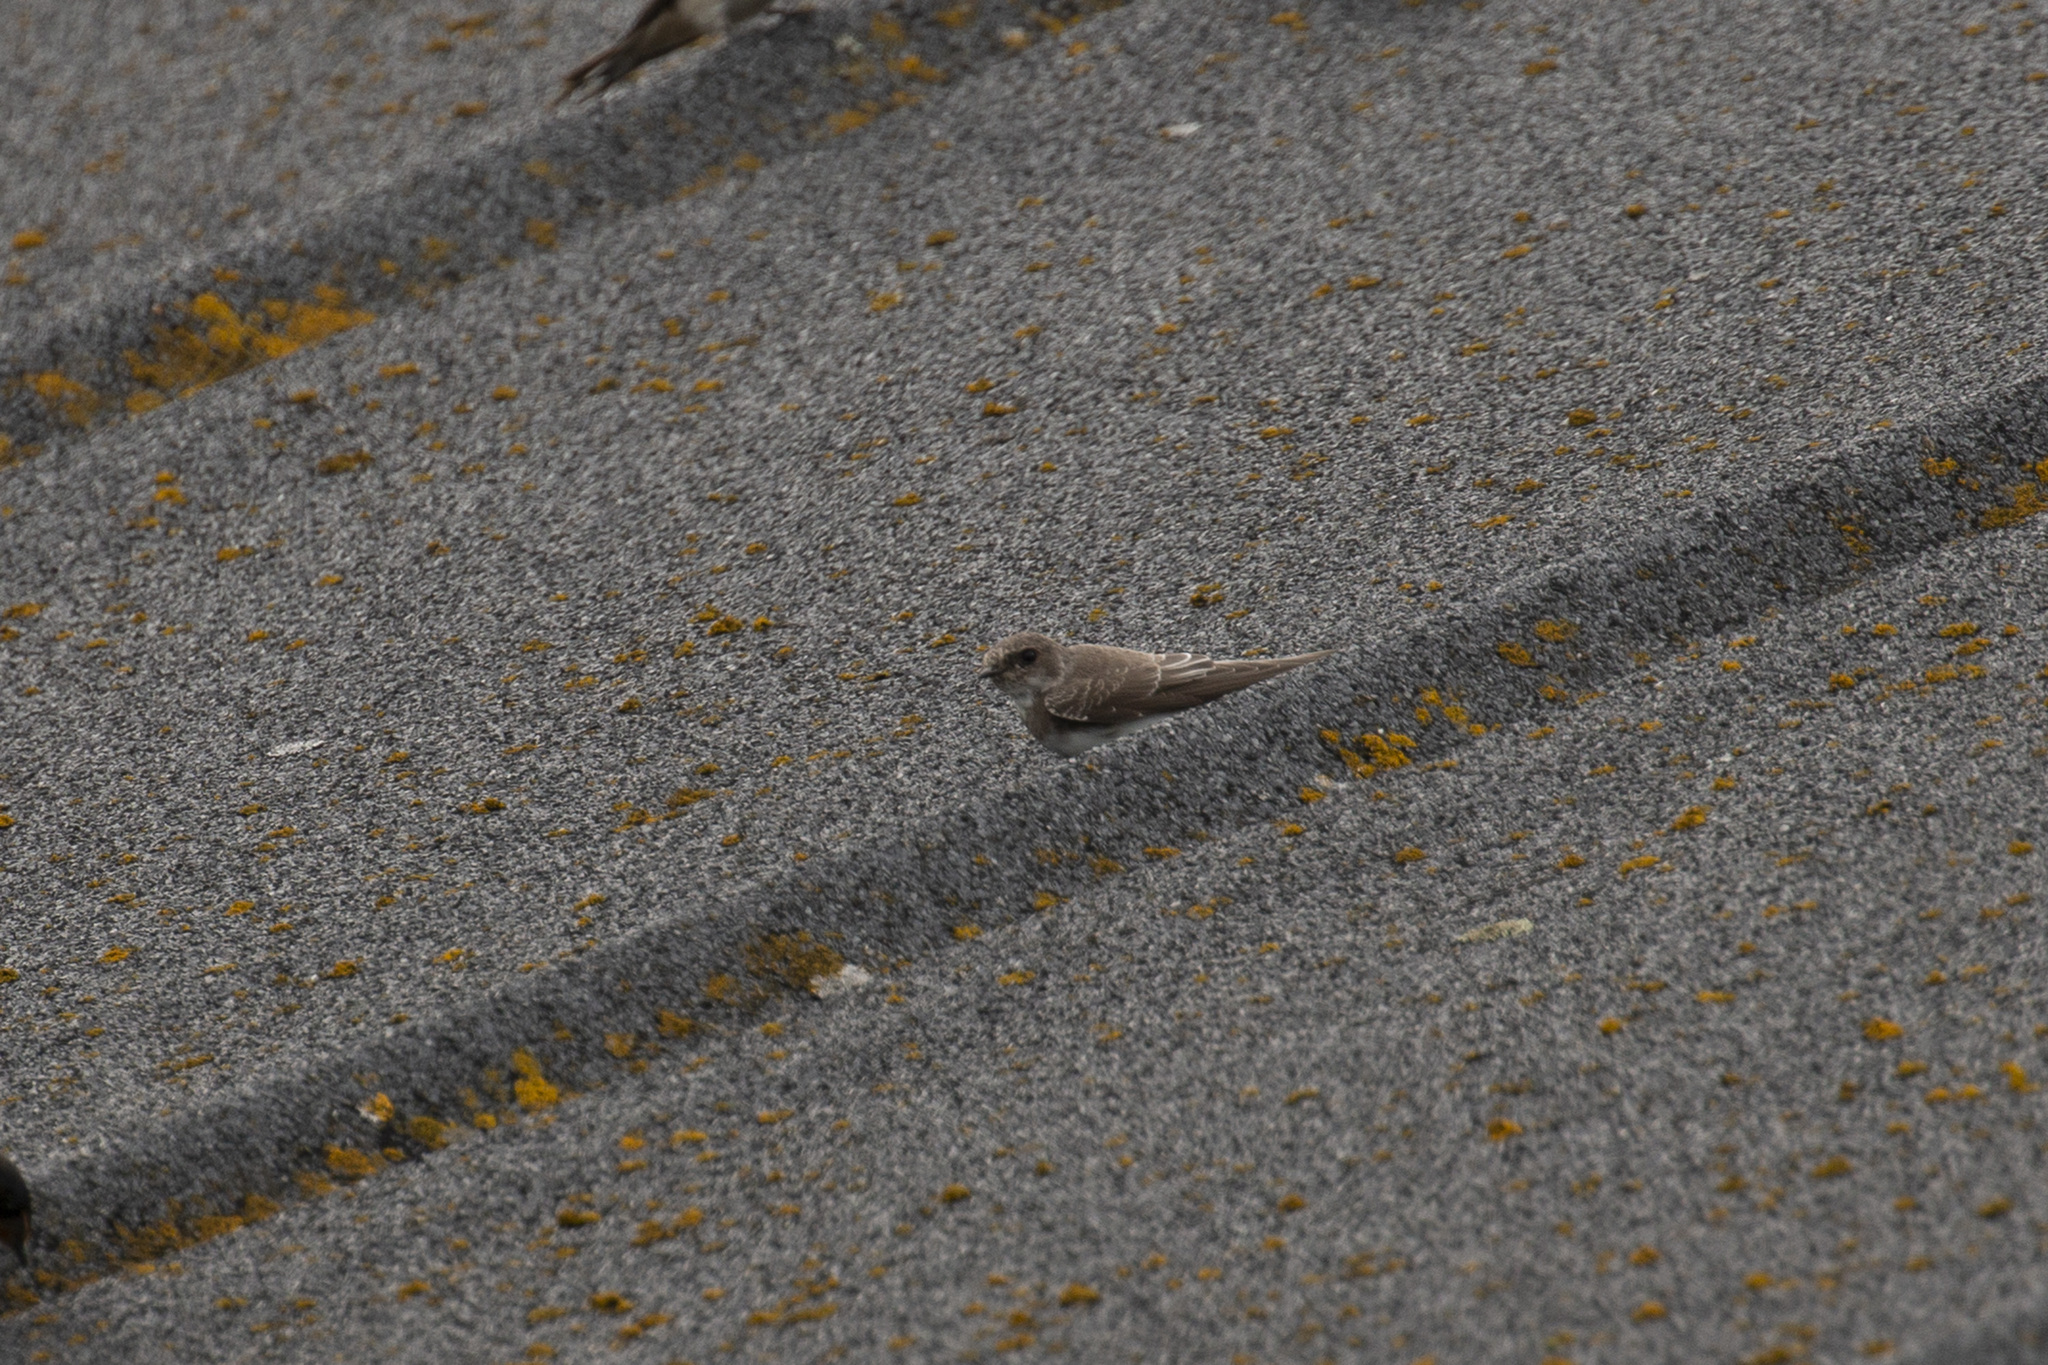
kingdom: Animalia
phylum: Chordata
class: Aves
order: Passeriformes
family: Hirundinidae
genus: Riparia
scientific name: Riparia riparia
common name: Sand martin
